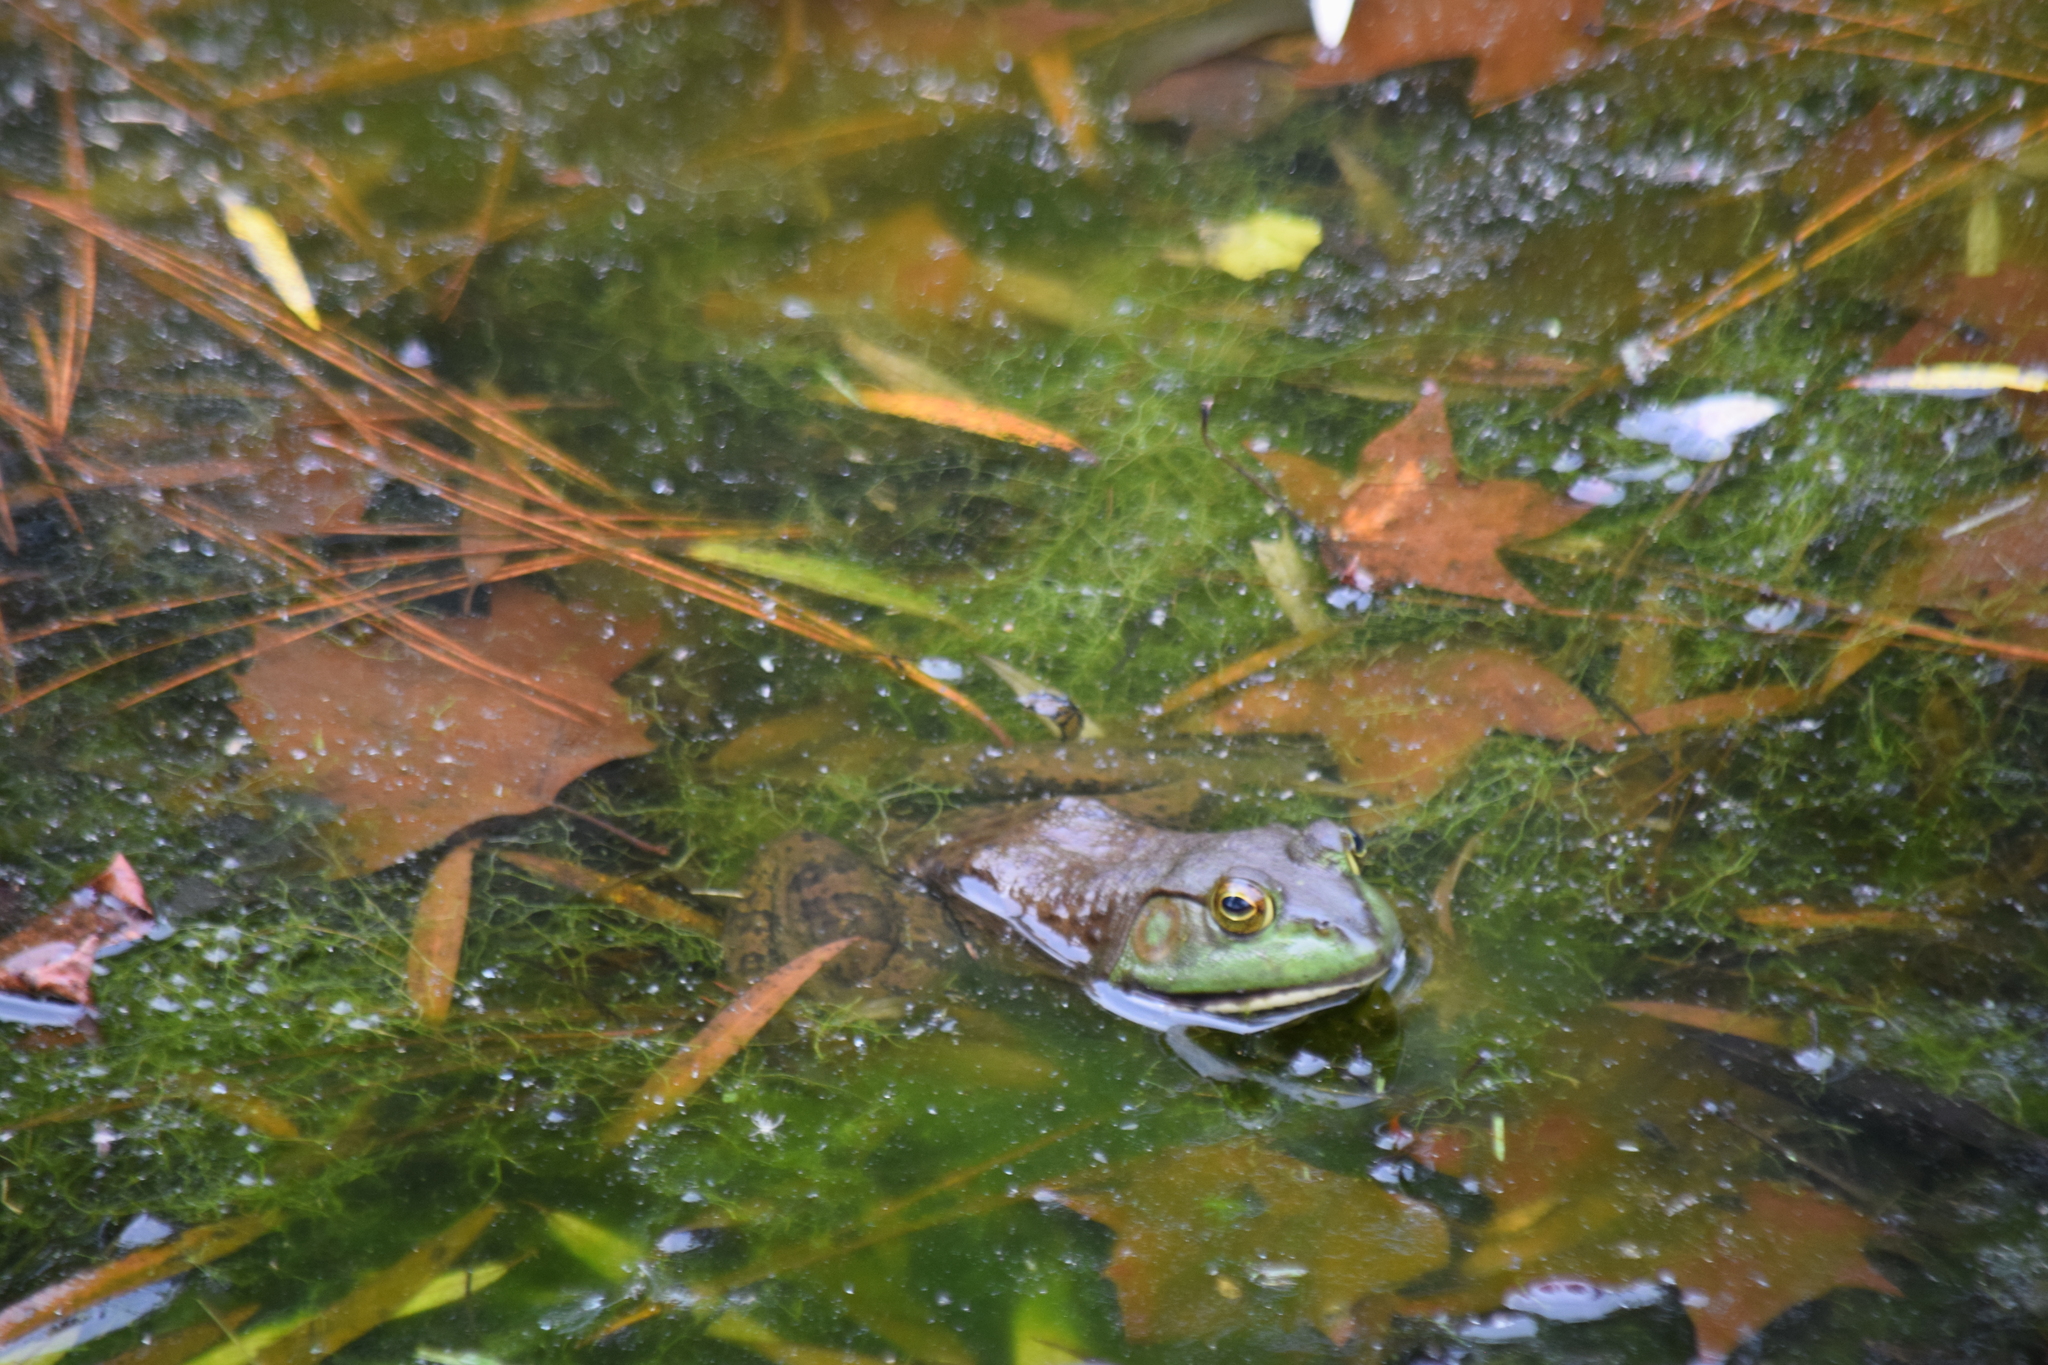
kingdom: Animalia
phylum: Chordata
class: Amphibia
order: Anura
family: Ranidae
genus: Lithobates
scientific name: Lithobates catesbeianus
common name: American bullfrog
